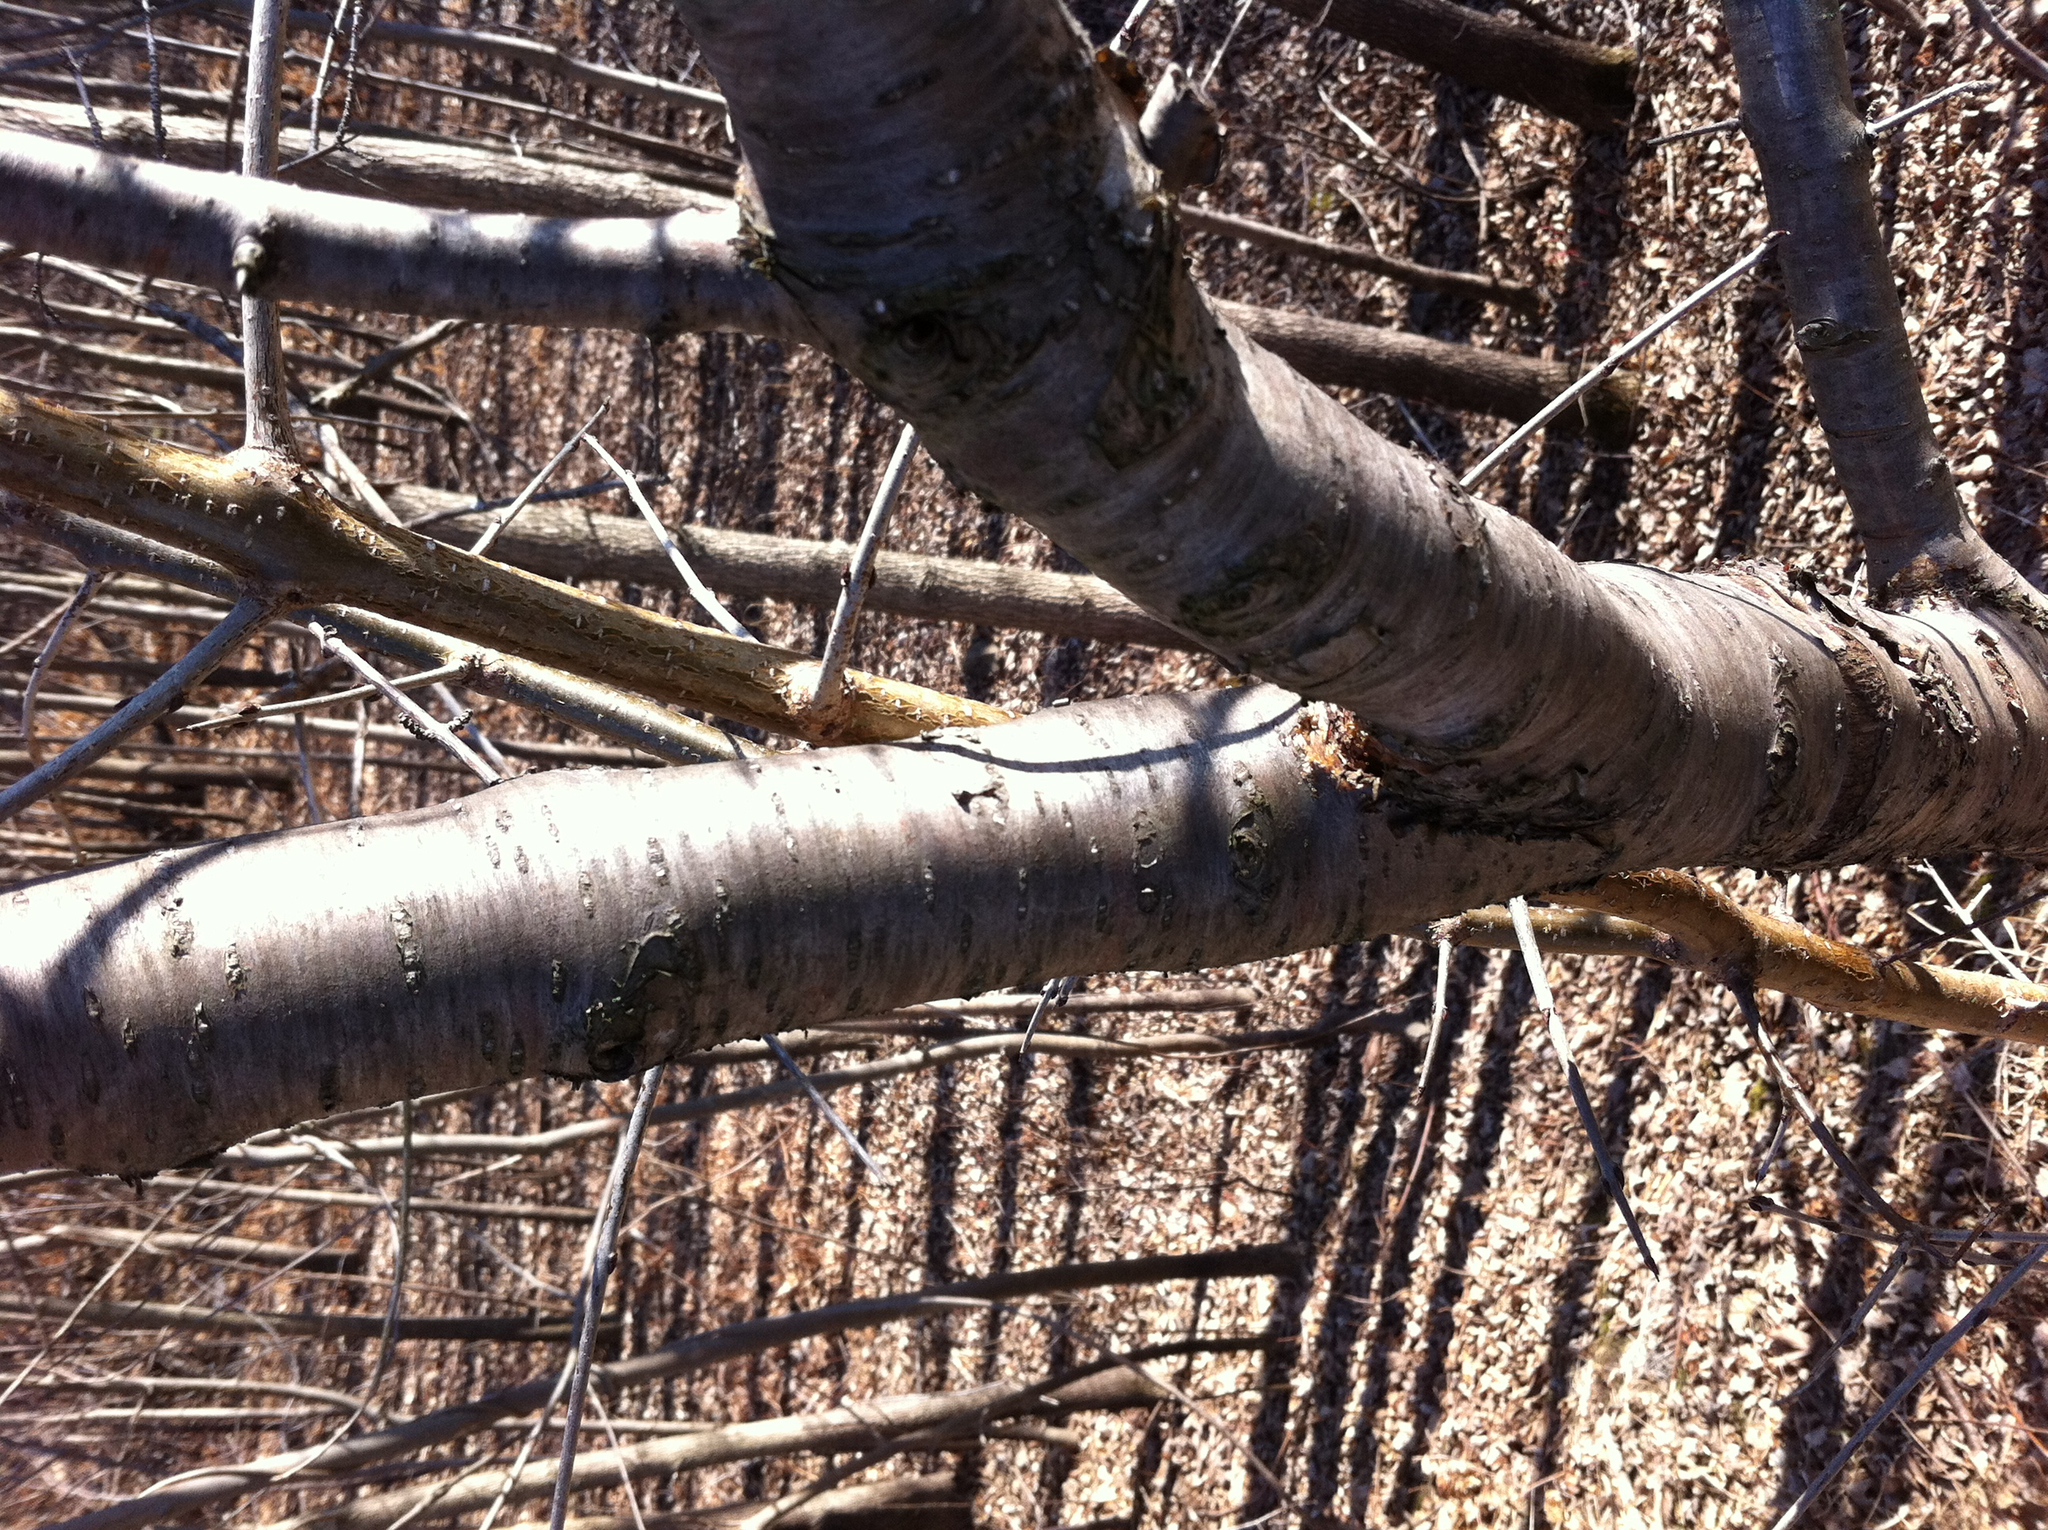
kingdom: Plantae
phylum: Tracheophyta
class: Magnoliopsida
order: Rosales
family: Rhamnaceae
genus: Rhamnus
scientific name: Rhamnus cathartica
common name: Common buckthorn
